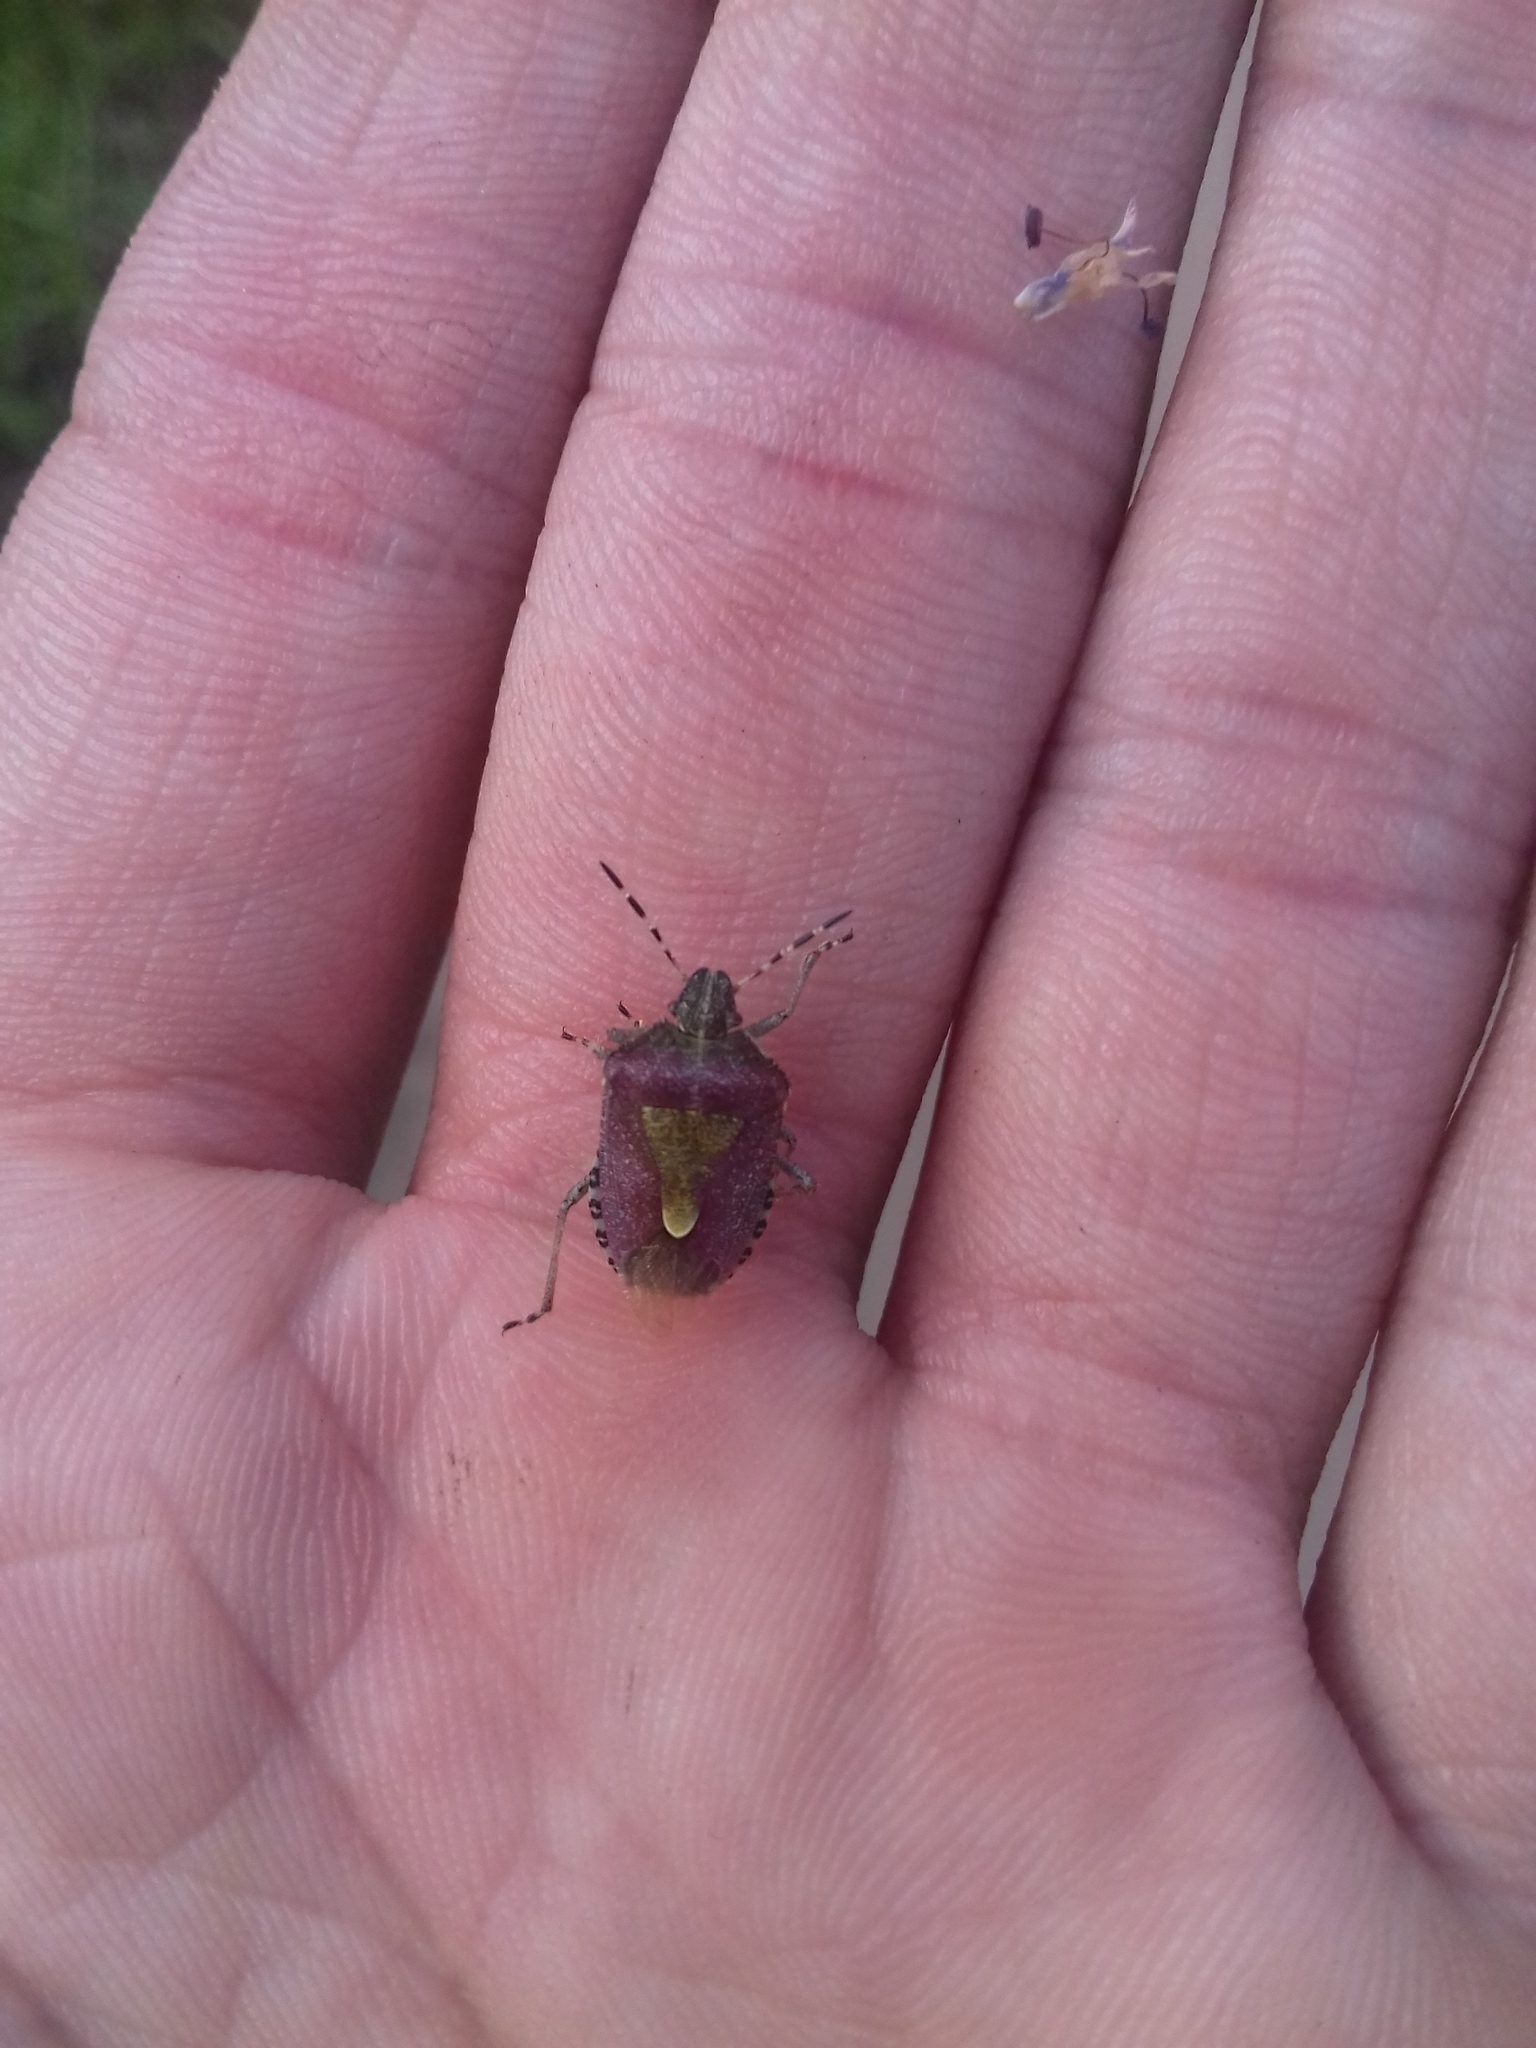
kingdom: Animalia
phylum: Arthropoda
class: Insecta
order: Hemiptera
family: Pentatomidae
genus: Dolycoris
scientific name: Dolycoris baccarum
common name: Sloe bug
